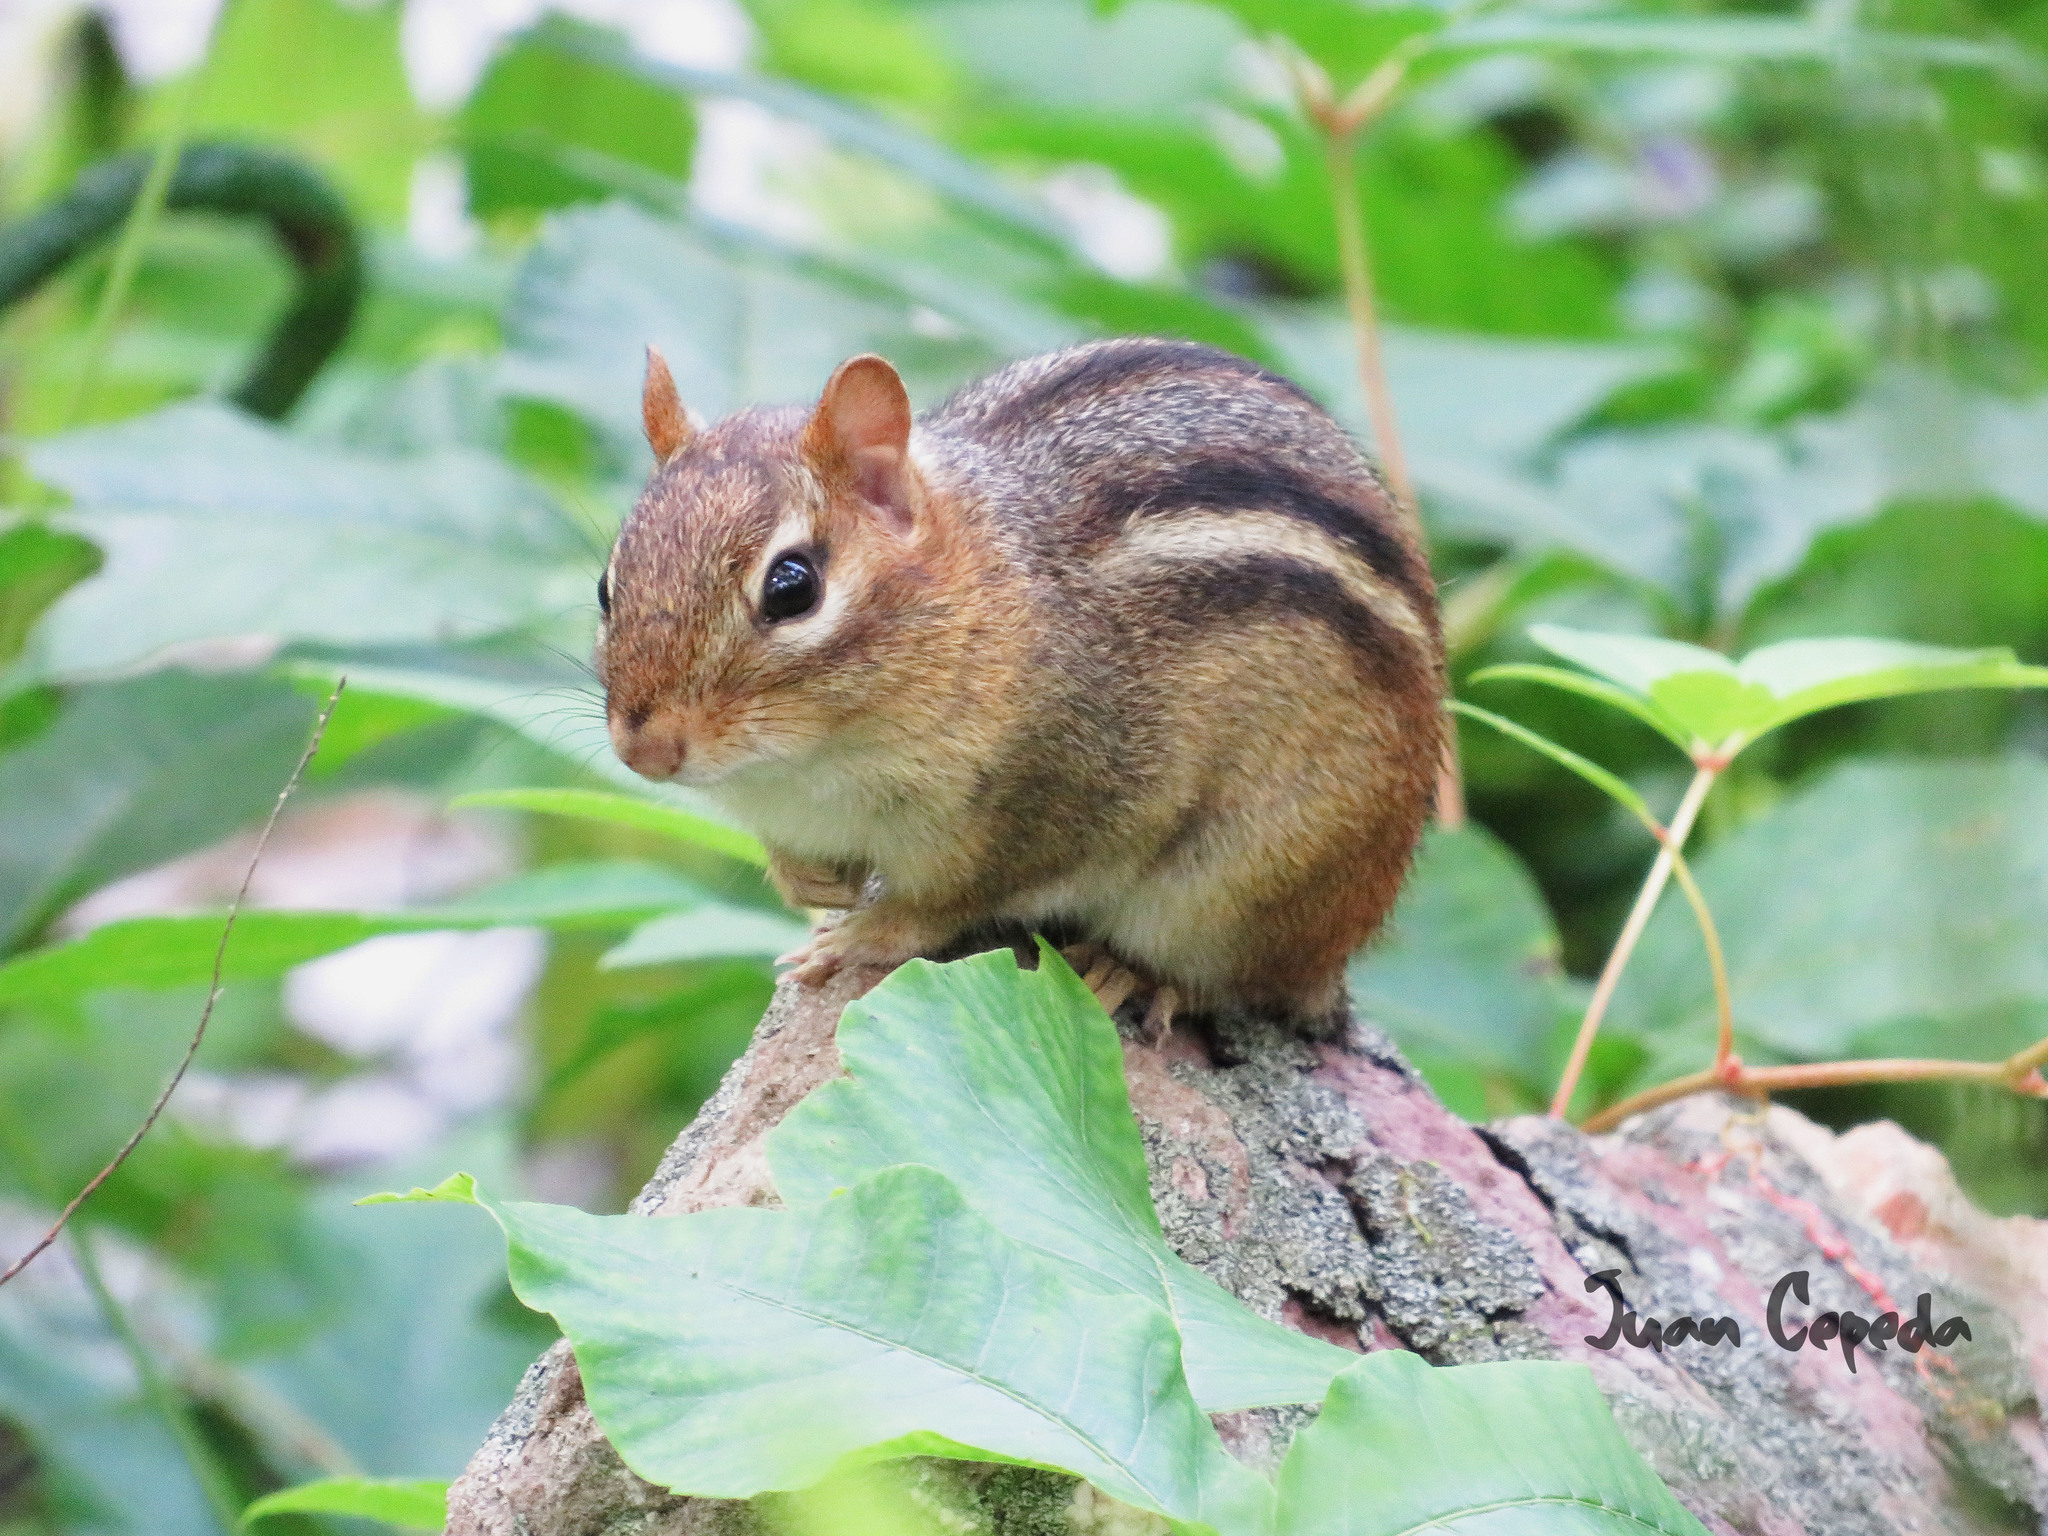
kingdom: Animalia
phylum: Chordata
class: Mammalia
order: Rodentia
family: Sciuridae
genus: Tamias
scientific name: Tamias striatus
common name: Eastern chipmunk
